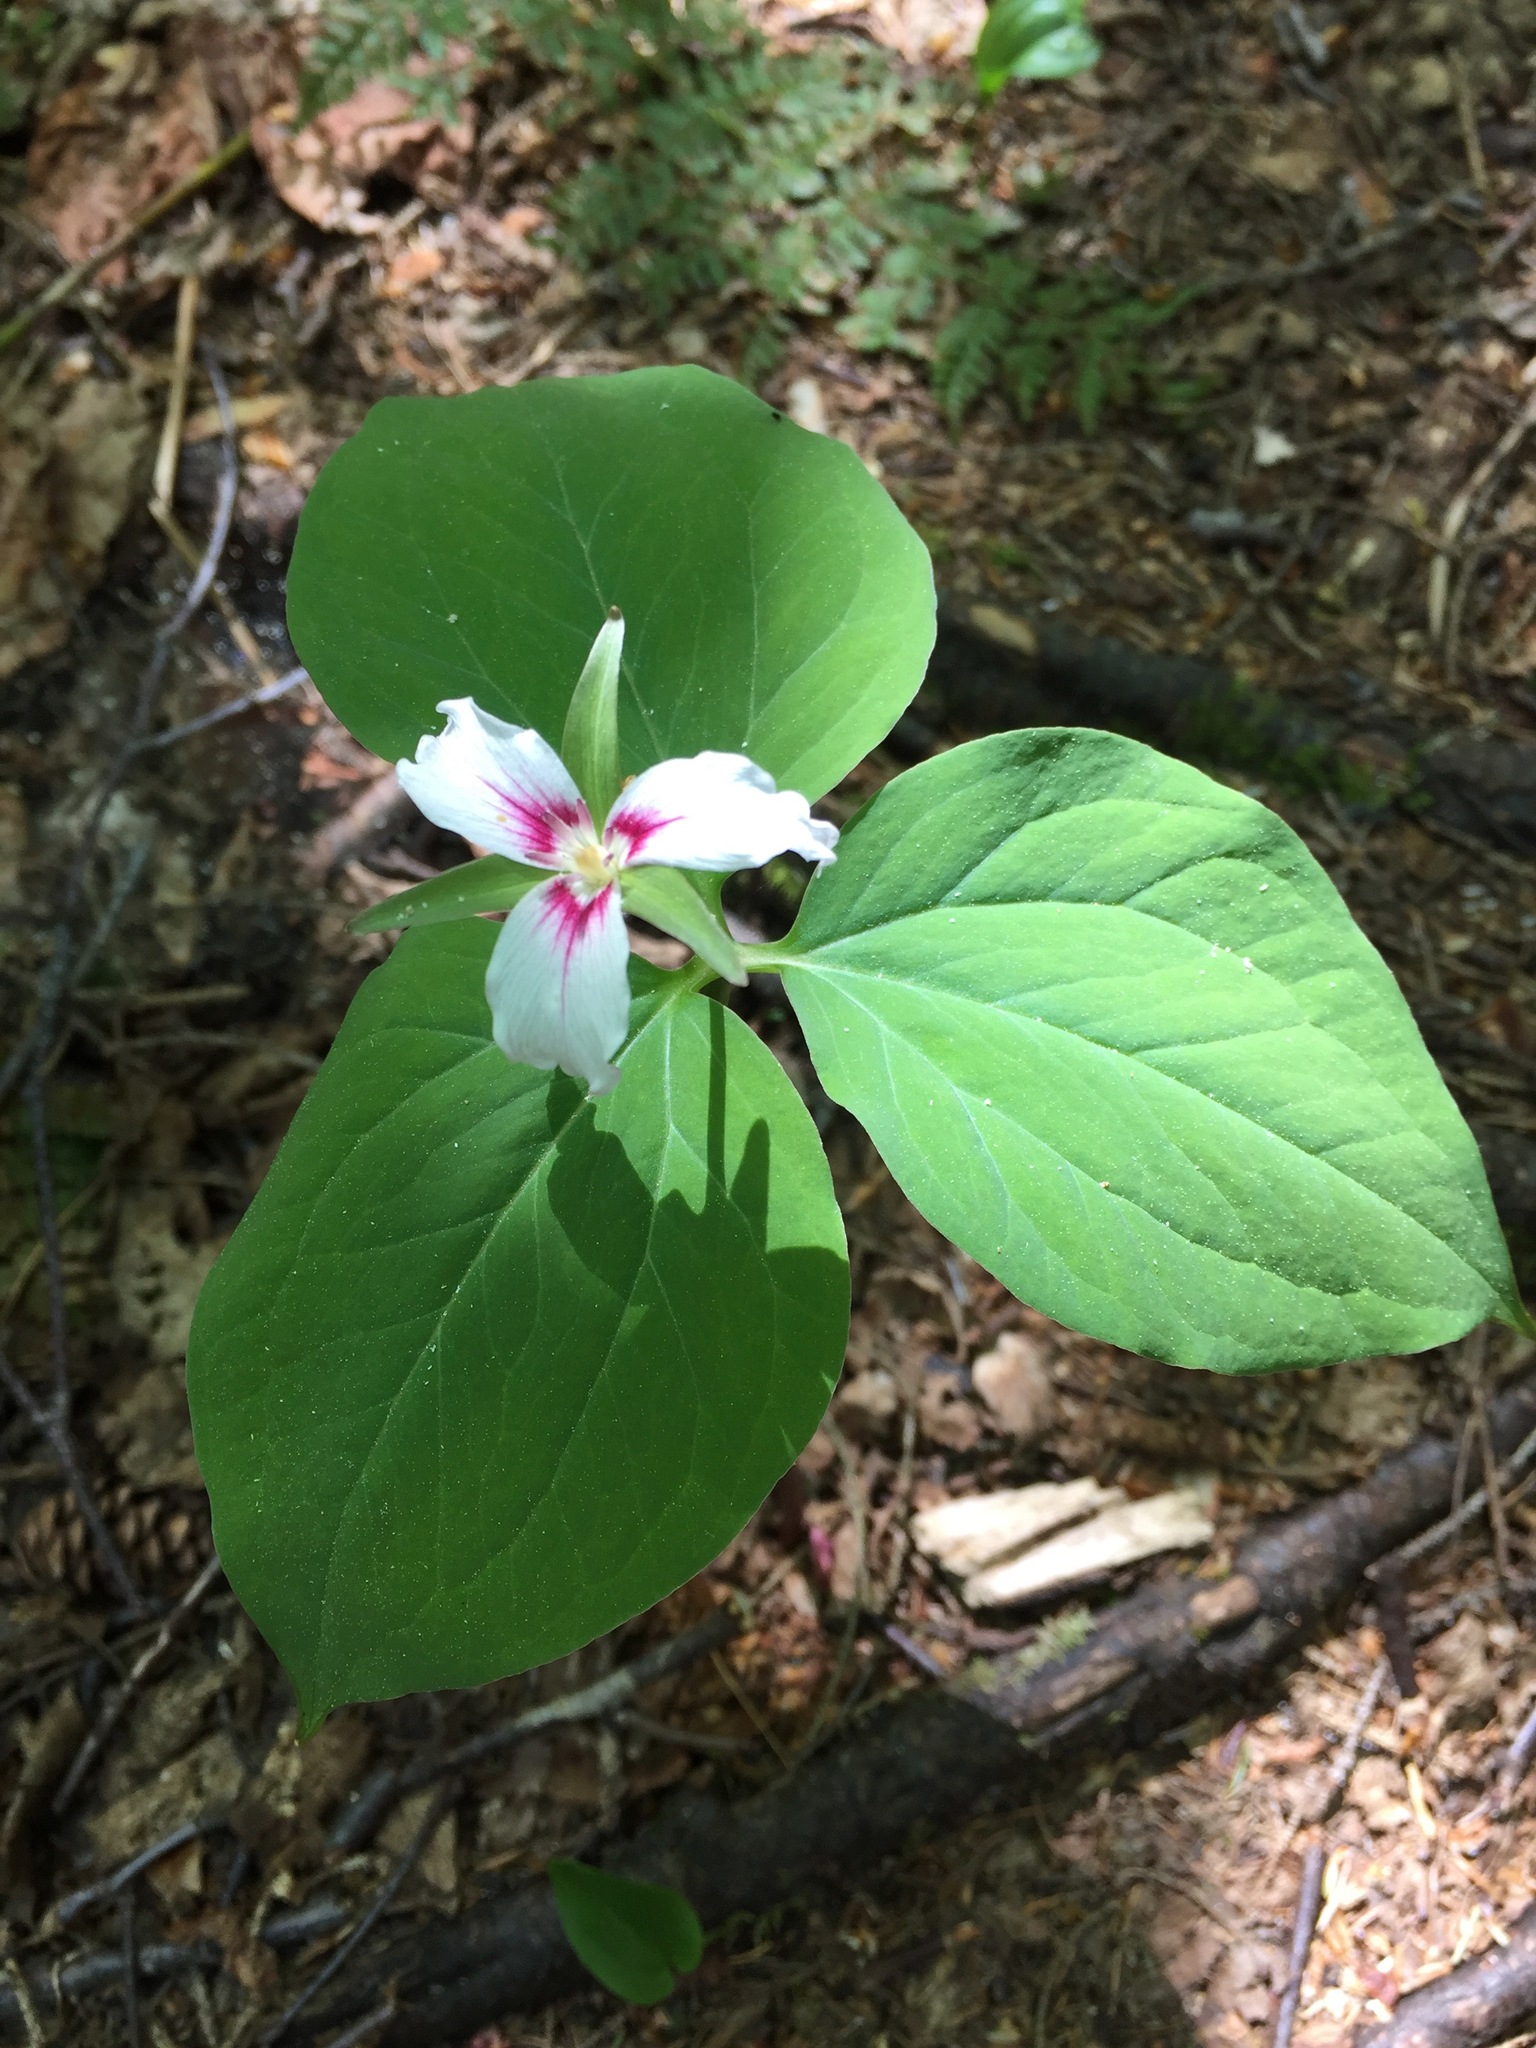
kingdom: Plantae
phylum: Tracheophyta
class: Liliopsida
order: Liliales
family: Melanthiaceae
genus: Trillium
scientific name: Trillium undulatum
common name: Paint trillium
